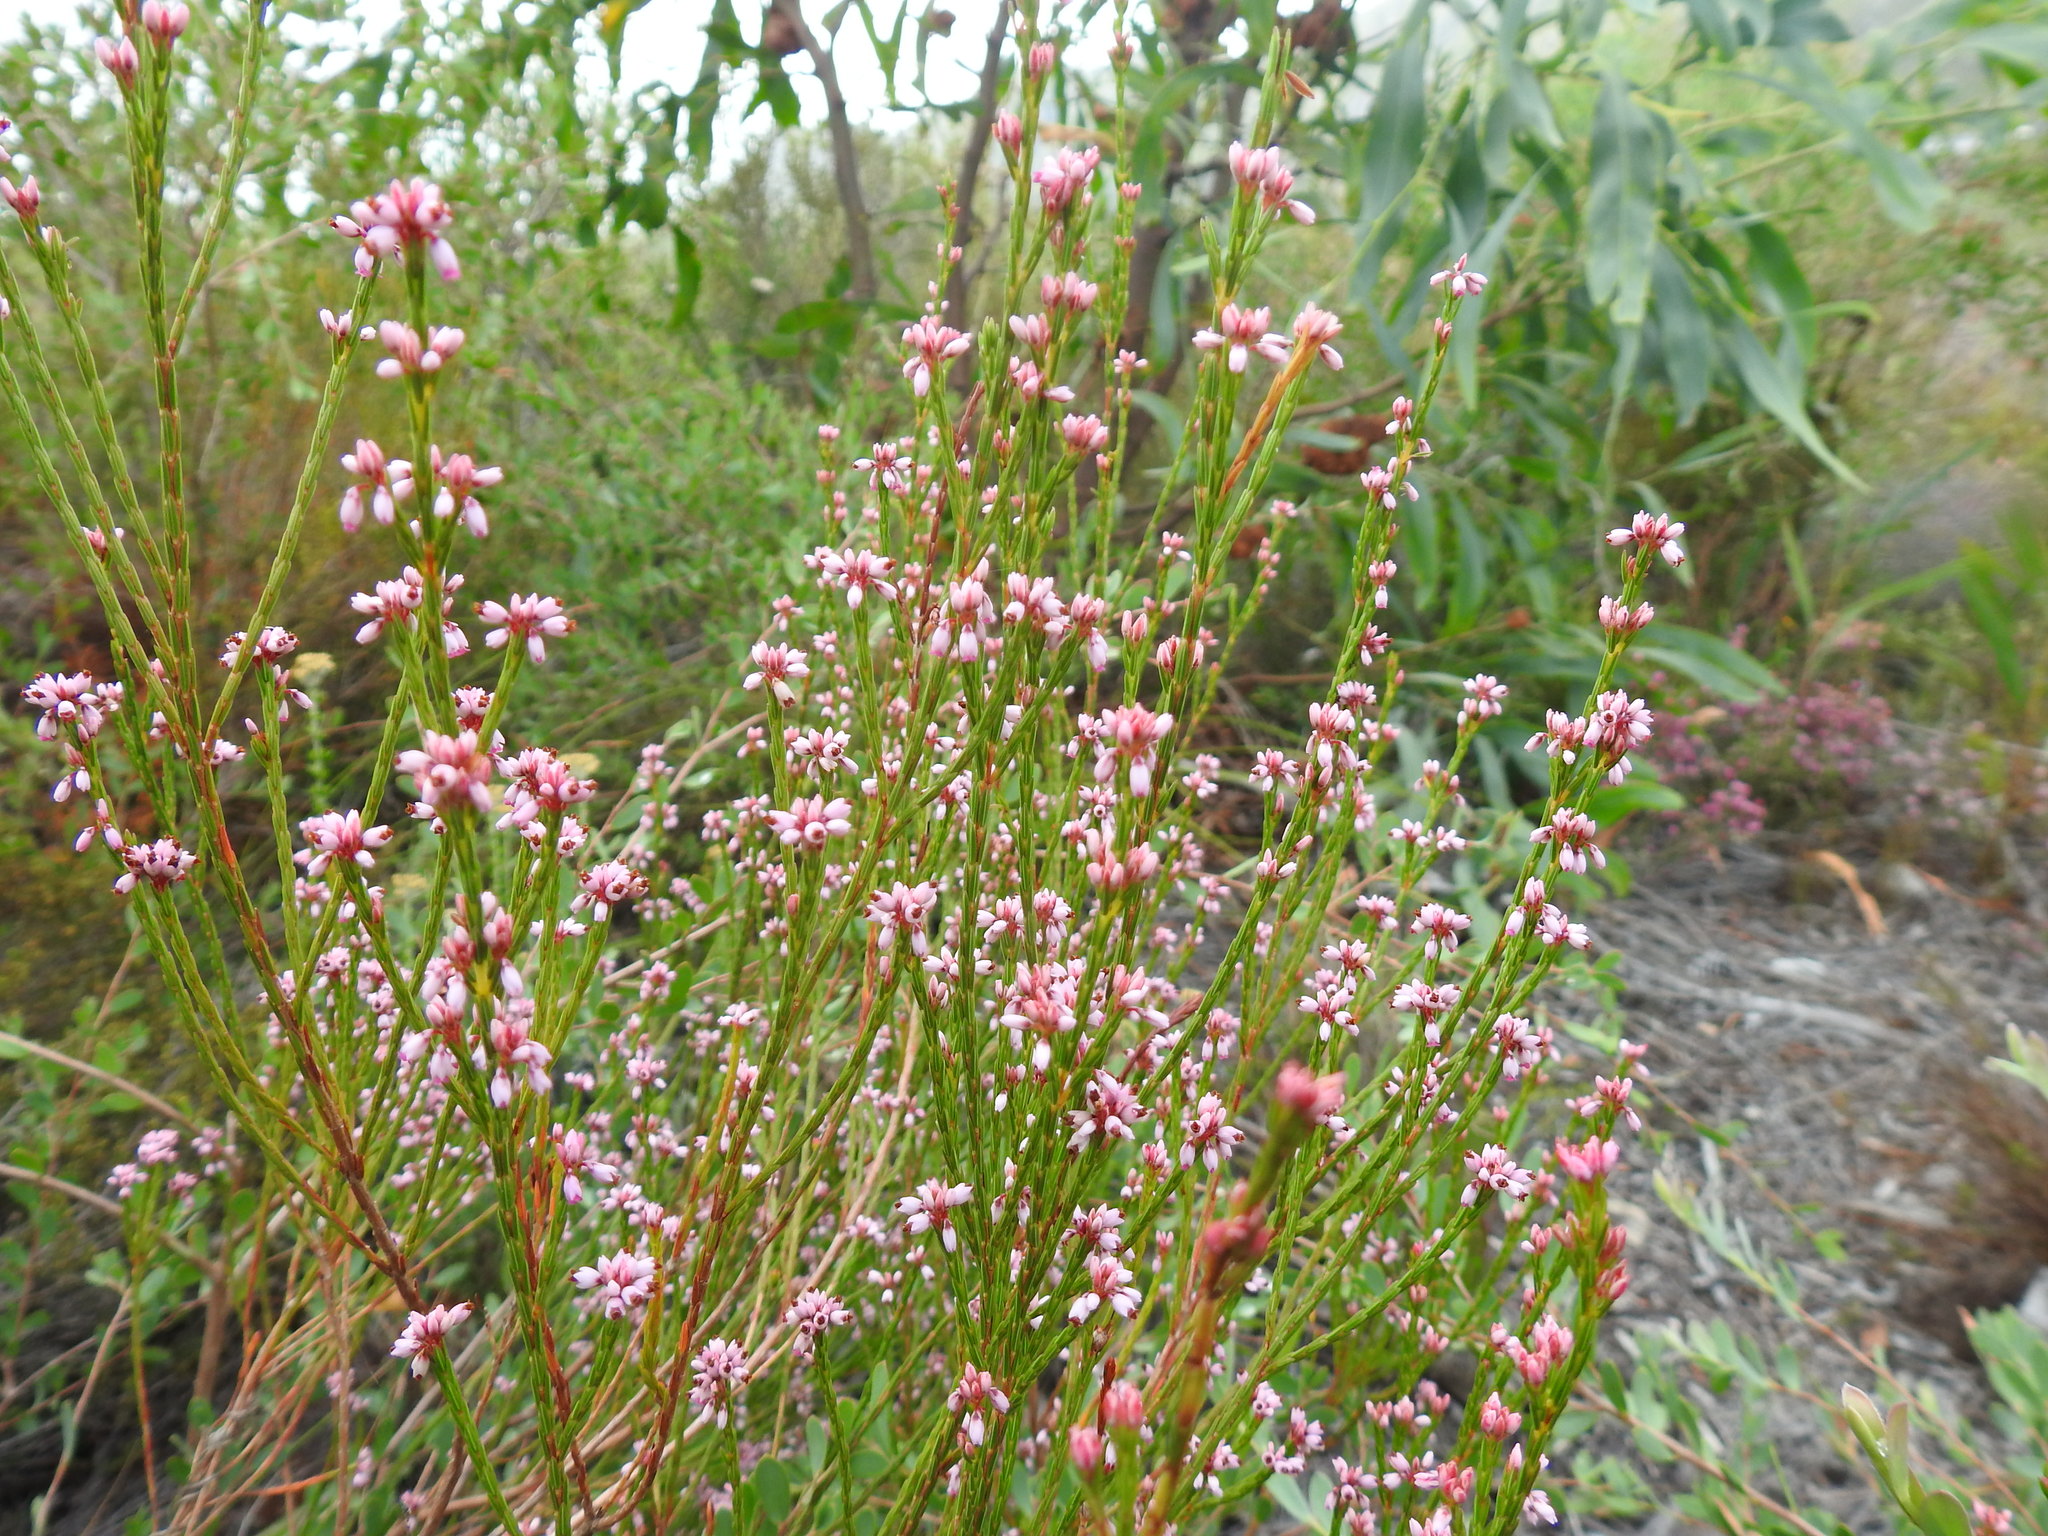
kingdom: Plantae
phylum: Tracheophyta
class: Magnoliopsida
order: Ericales
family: Ericaceae
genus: Erica
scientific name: Erica corifolia
